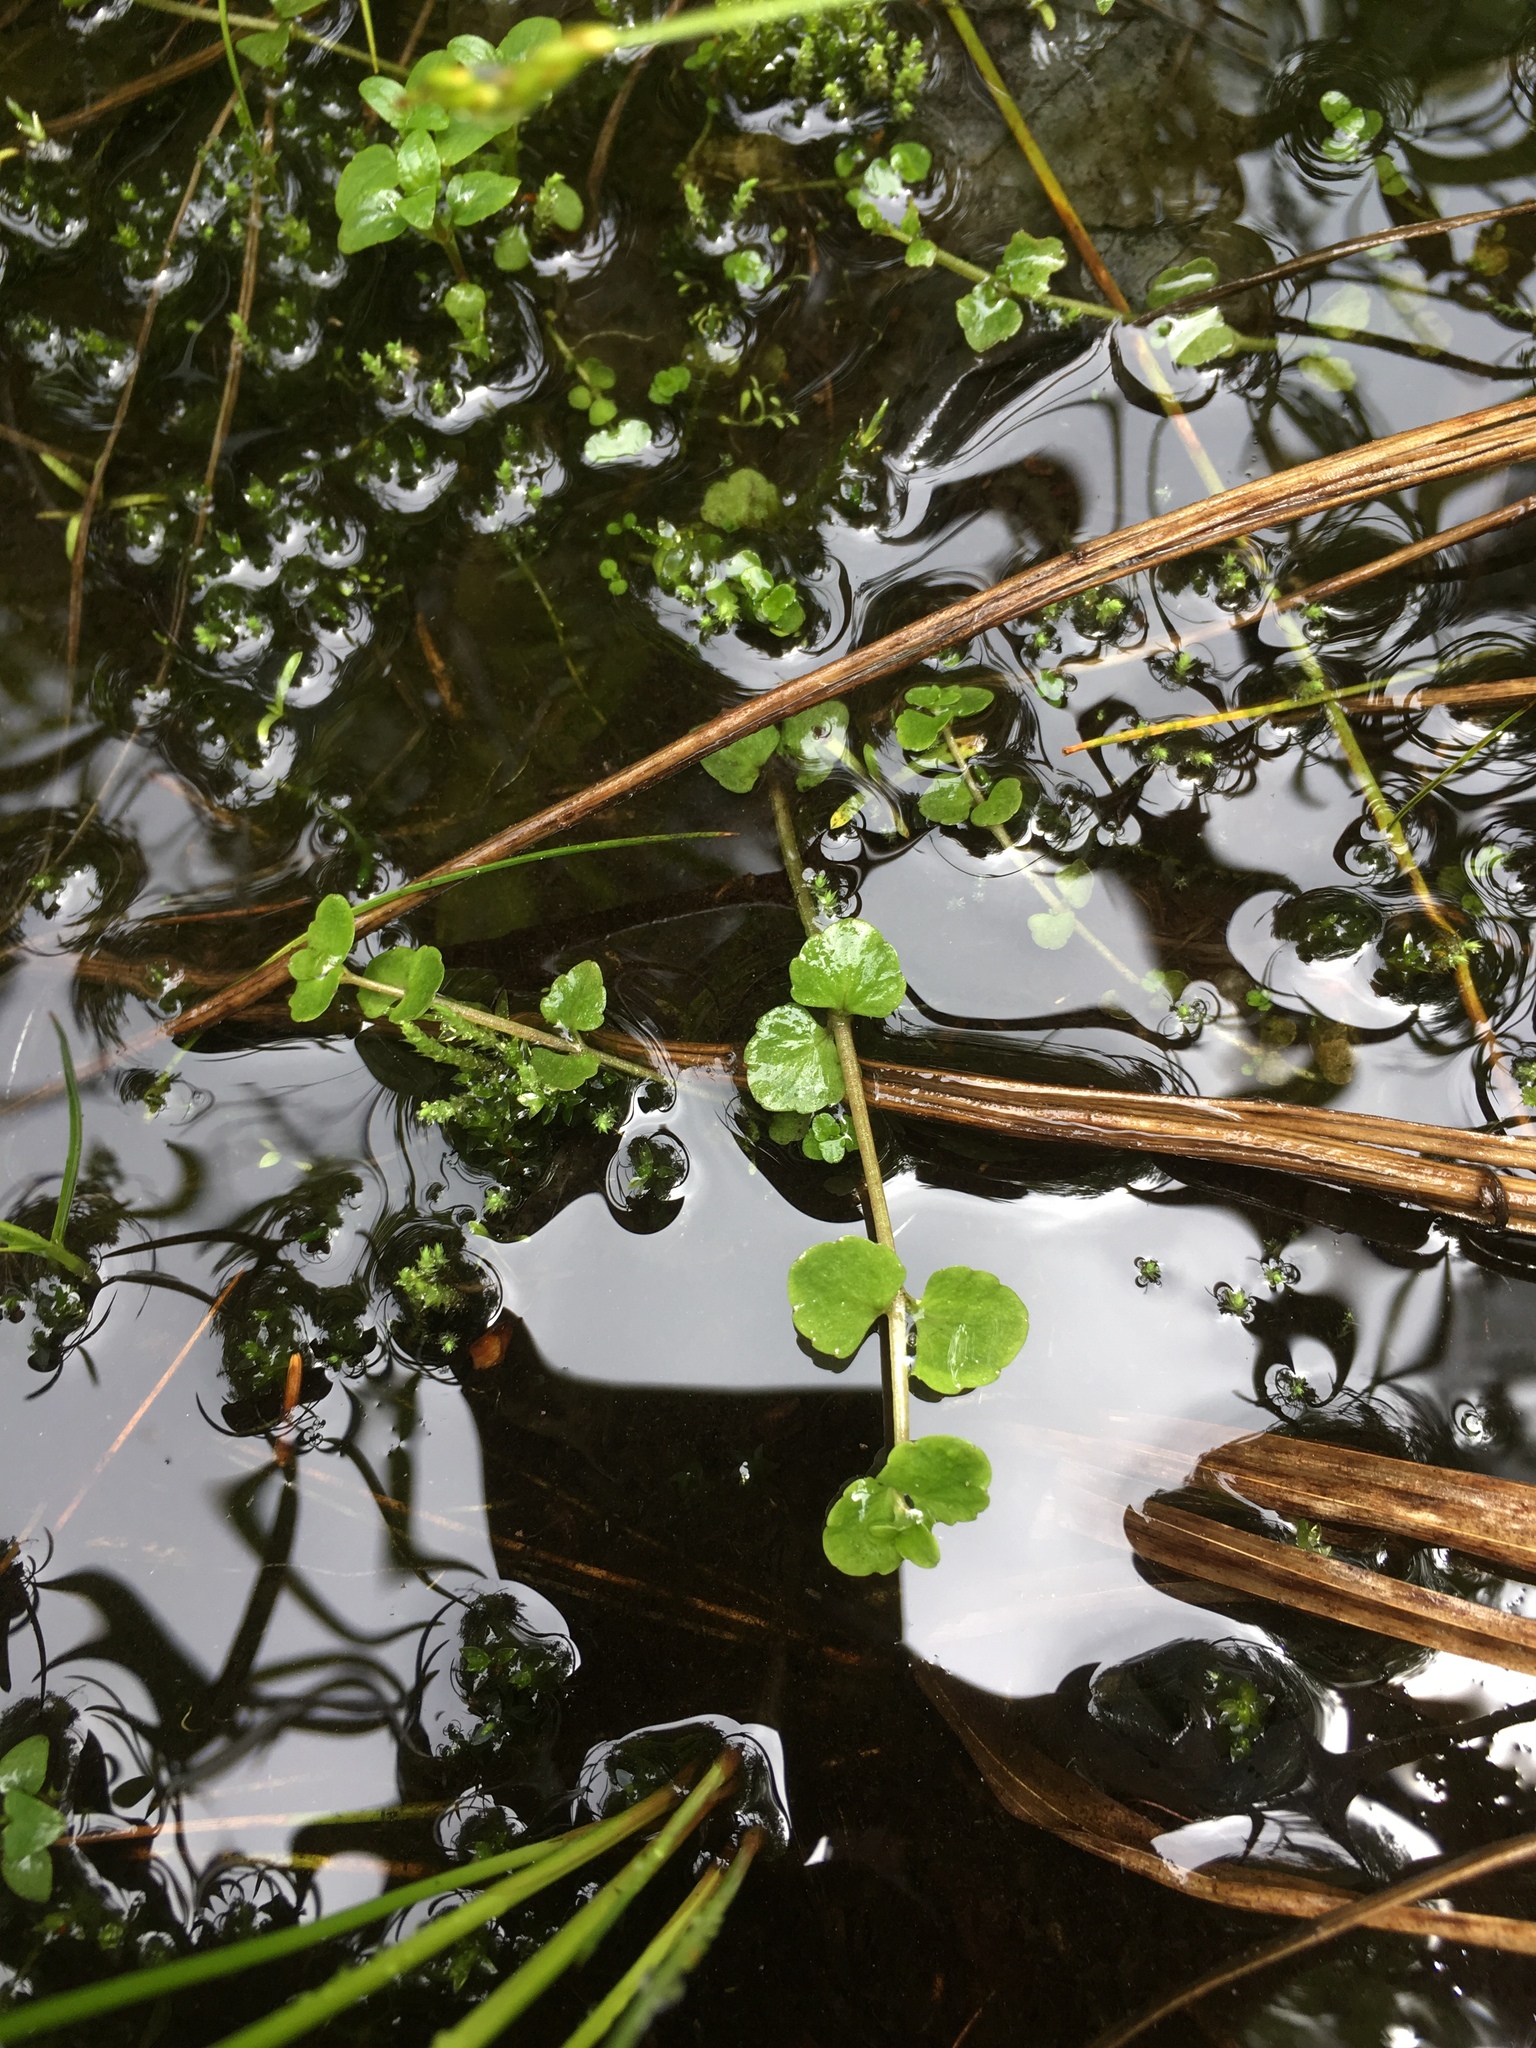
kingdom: Plantae
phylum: Tracheophyta
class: Magnoliopsida
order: Saxifragales
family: Saxifragaceae
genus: Chrysosplenium
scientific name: Chrysosplenium americanum
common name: American golden-saxifrage
